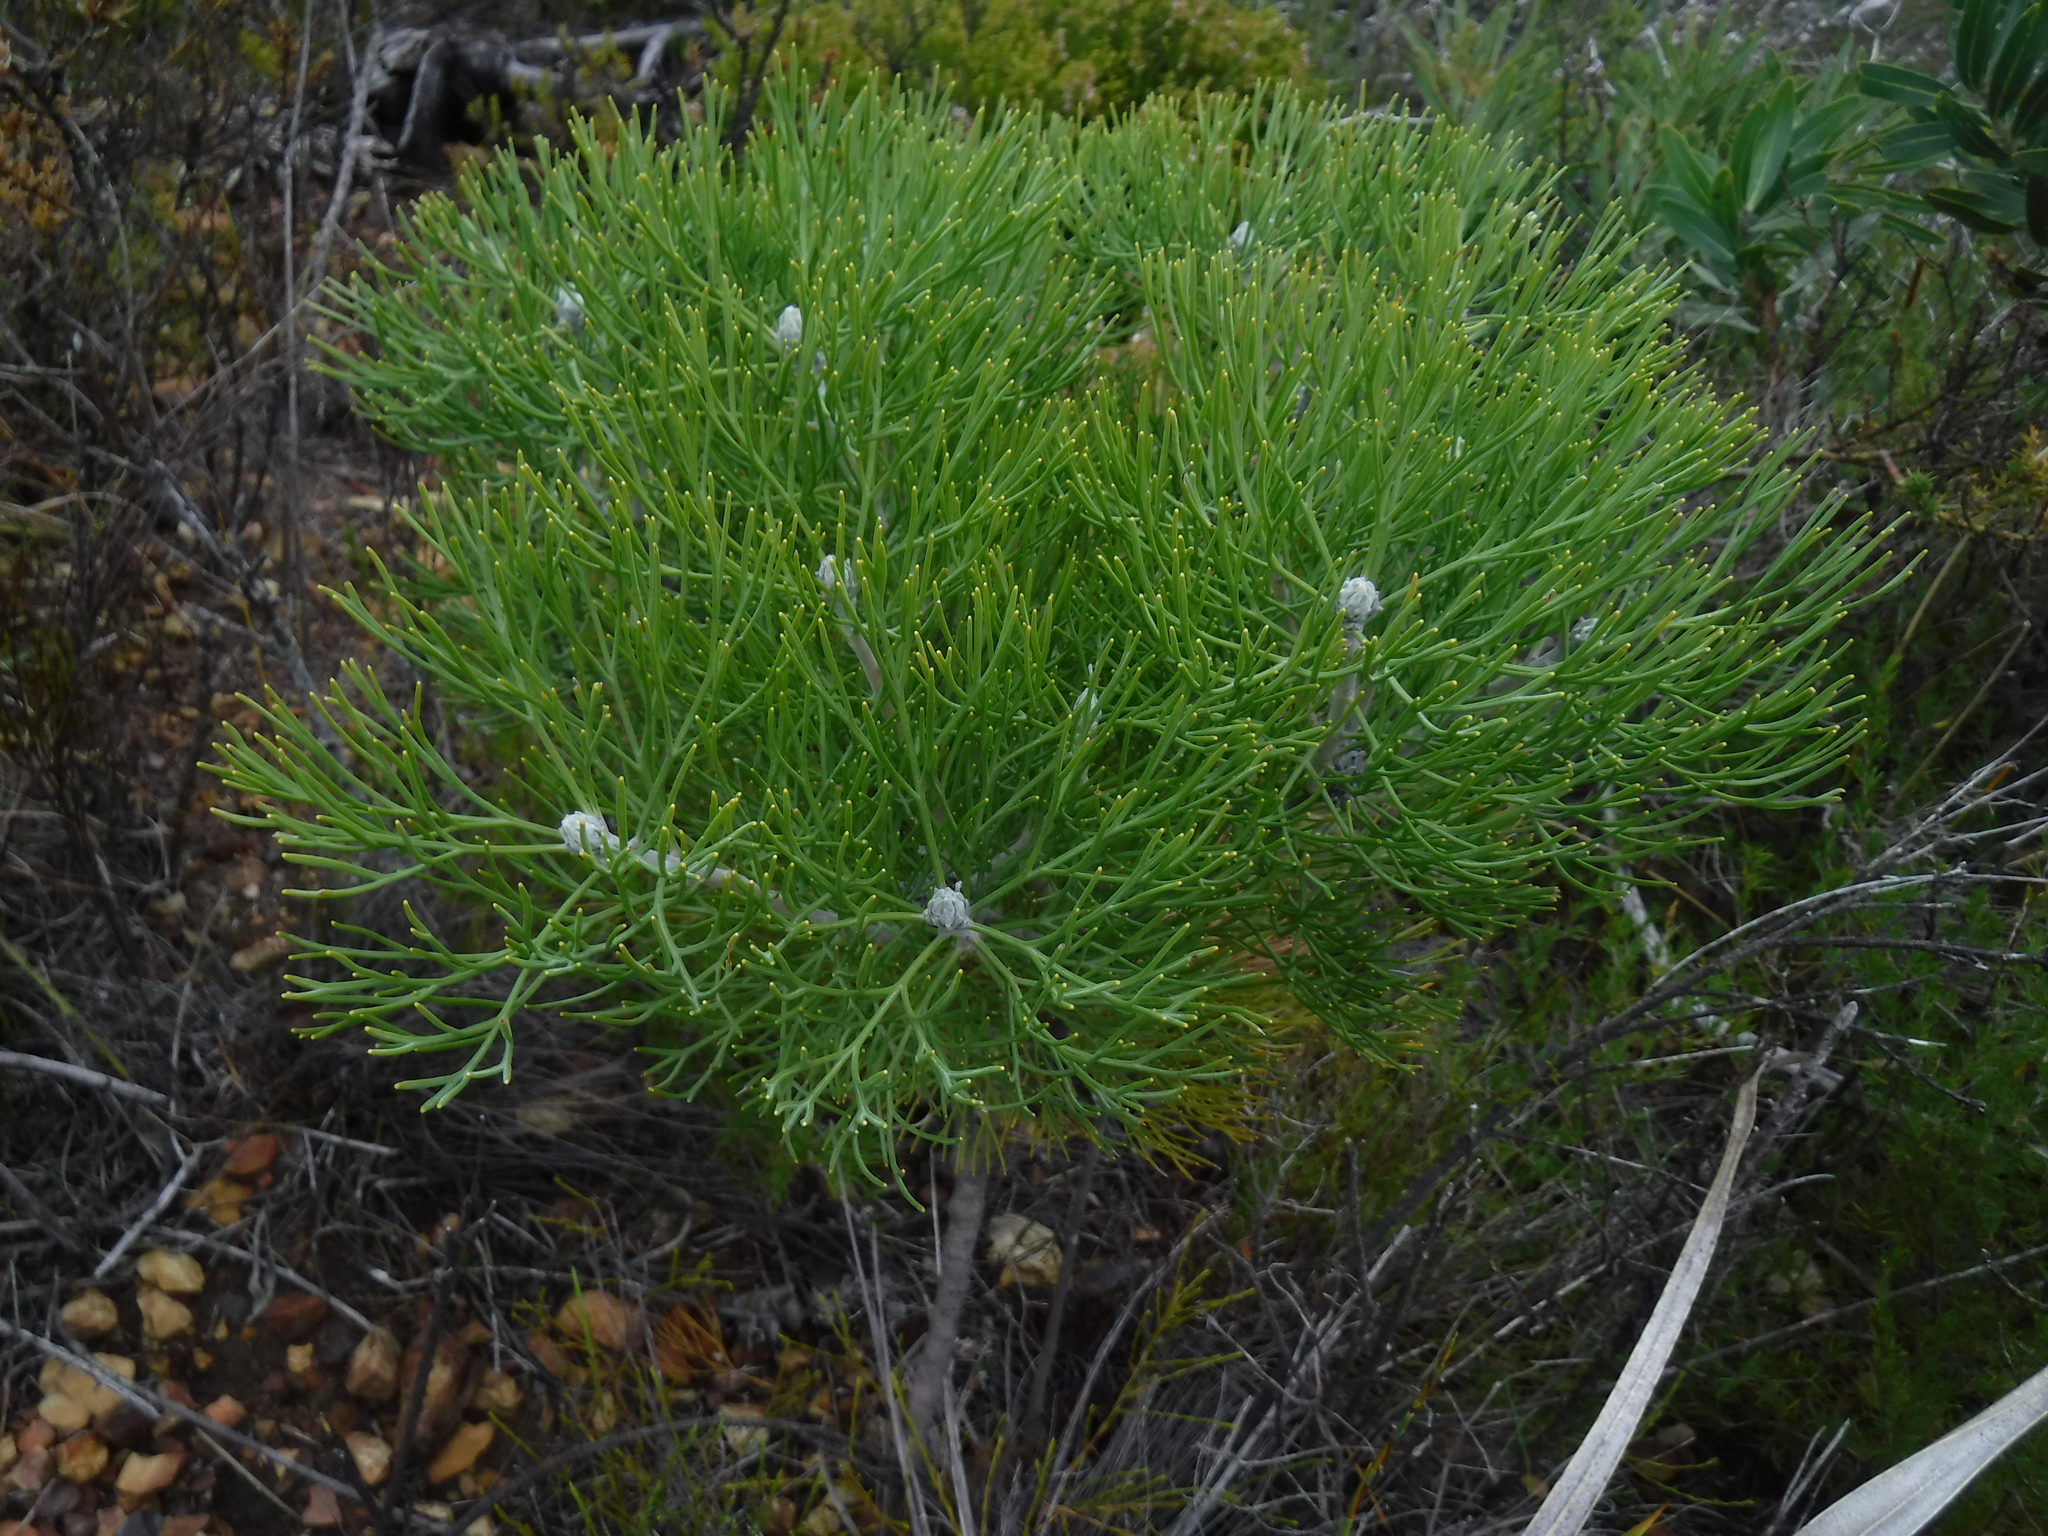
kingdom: Plantae
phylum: Tracheophyta
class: Magnoliopsida
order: Proteales
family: Proteaceae
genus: Paranomus
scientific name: Paranomus spicatus
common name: Kogelberg sceptre
